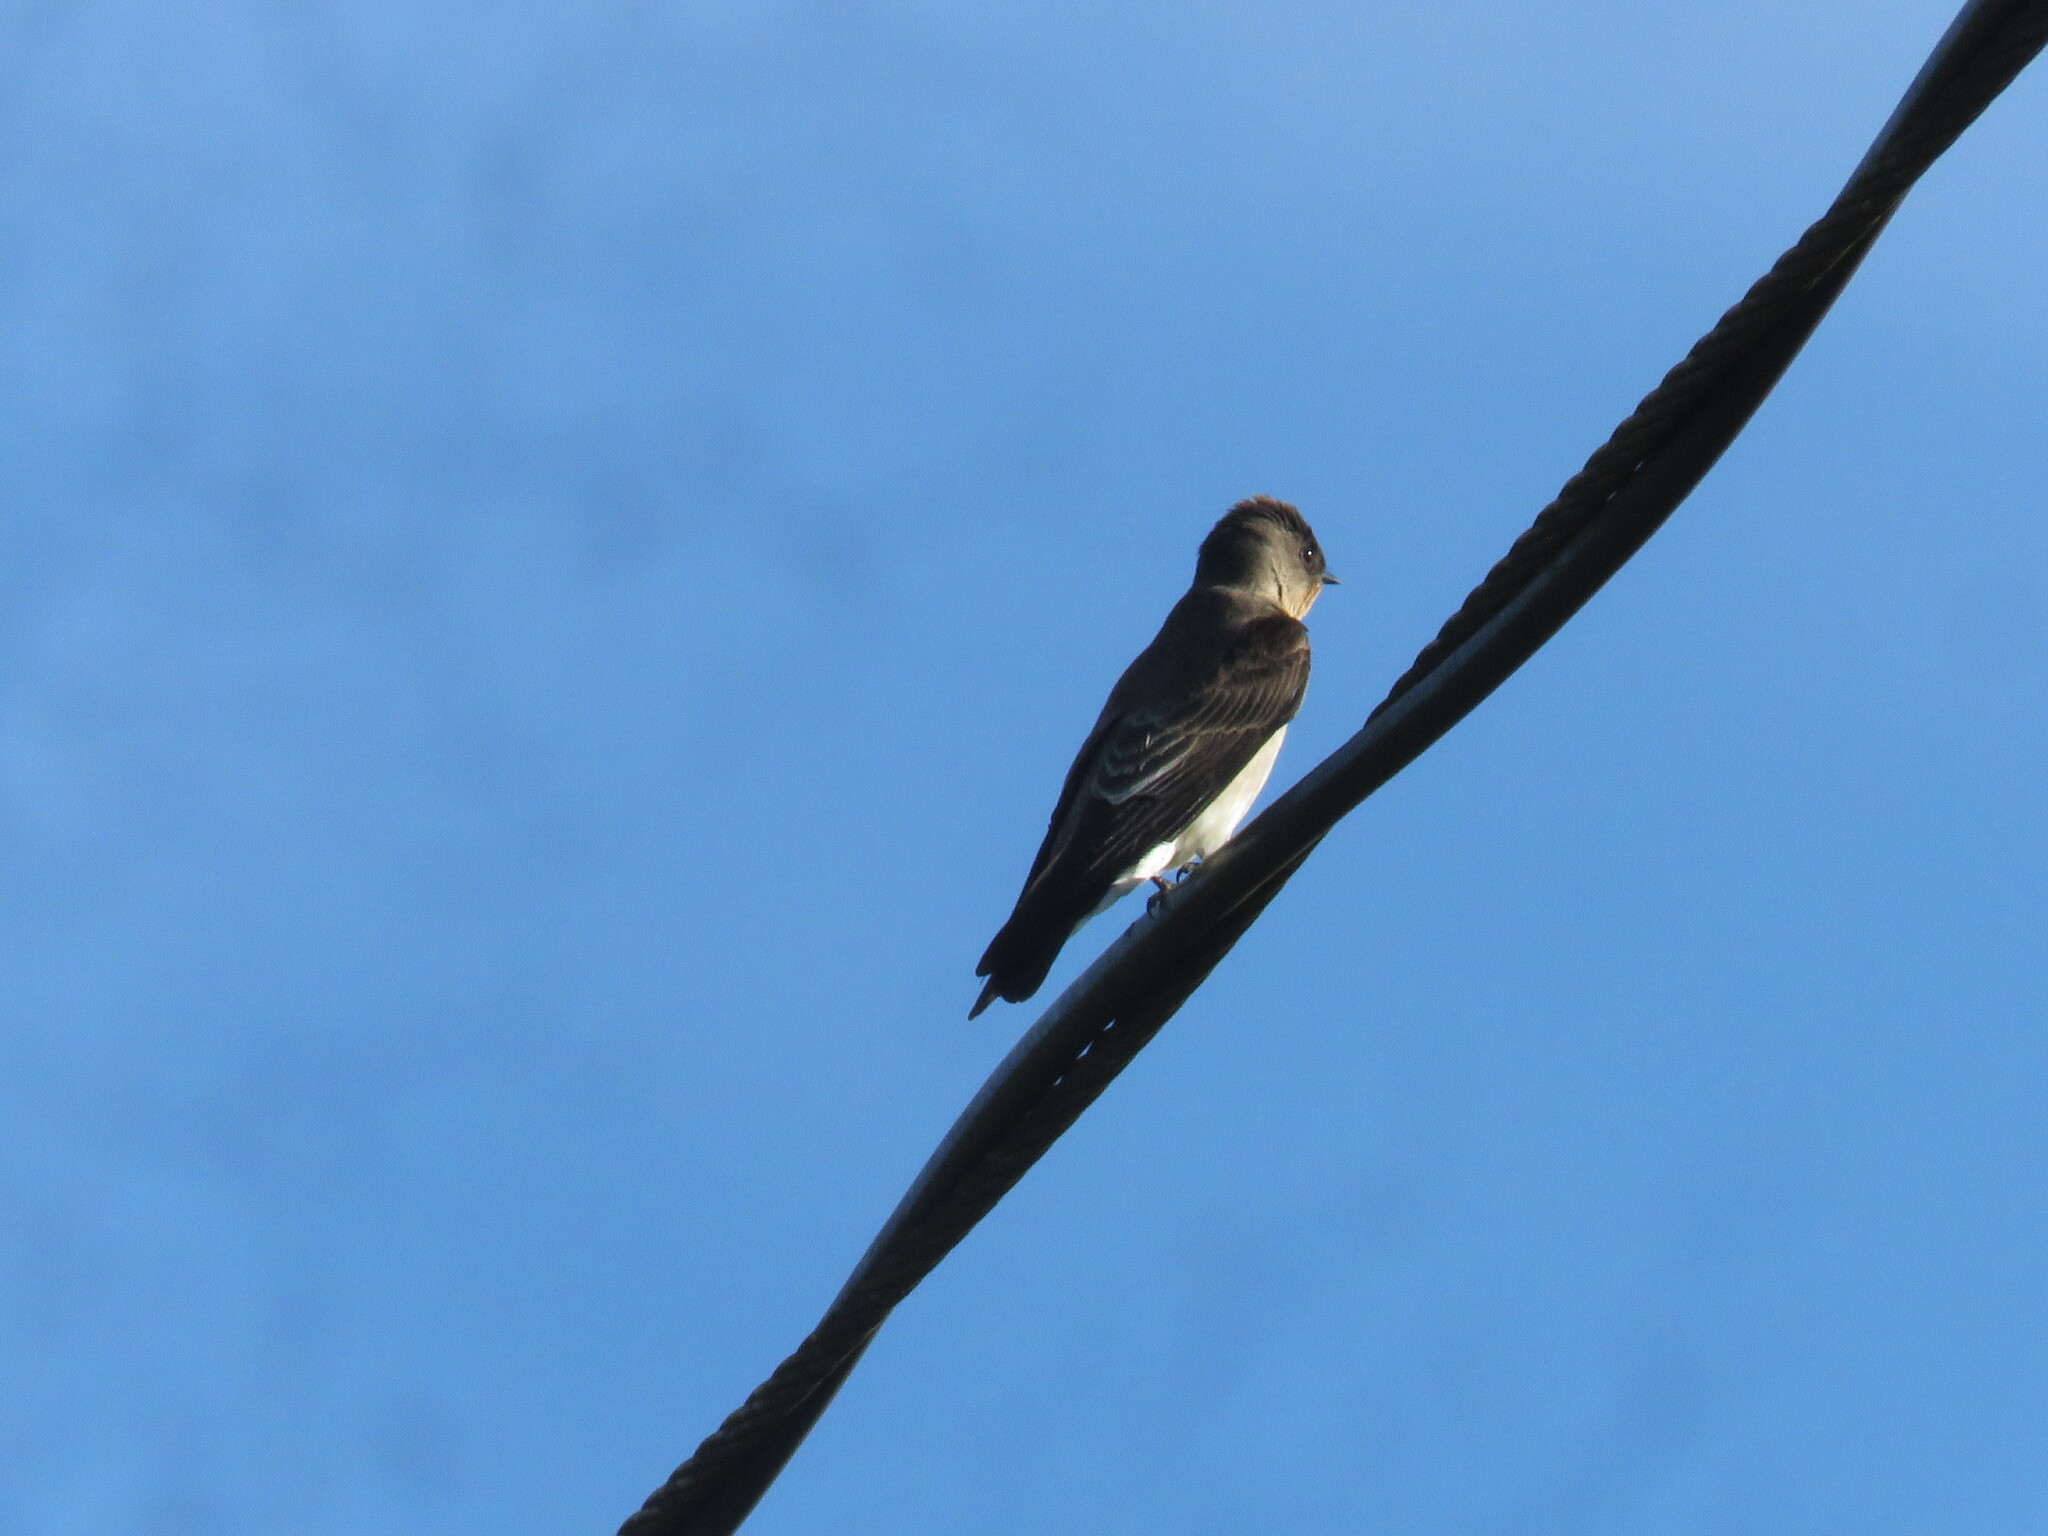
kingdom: Animalia
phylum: Chordata
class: Aves
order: Passeriformes
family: Hirundinidae
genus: Stelgidopteryx
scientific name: Stelgidopteryx ruficollis
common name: Southern rough-winged swallow
